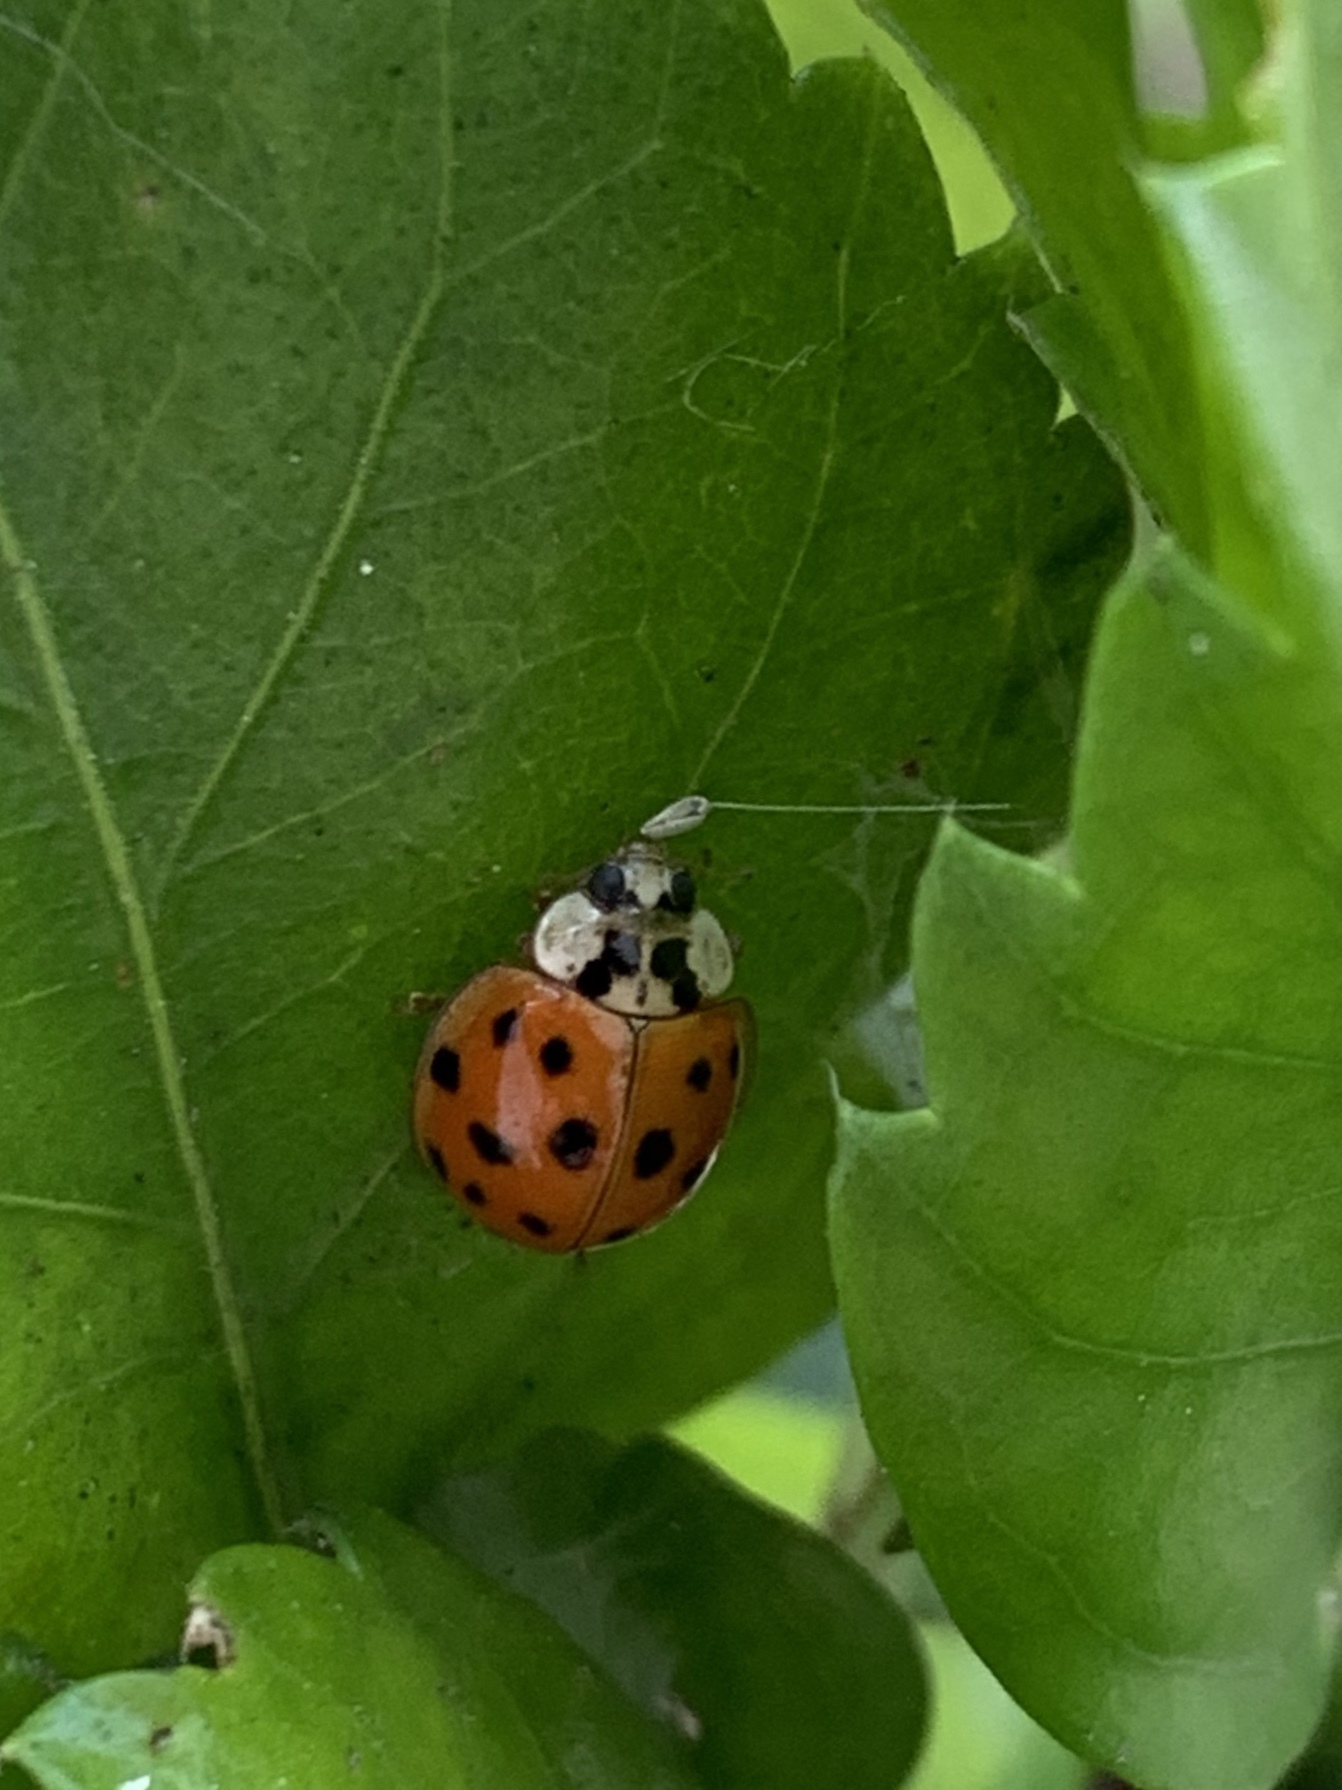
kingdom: Animalia
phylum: Arthropoda
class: Insecta
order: Coleoptera
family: Coccinellidae
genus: Harmonia
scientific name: Harmonia axyridis
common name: Harlequin ladybird
